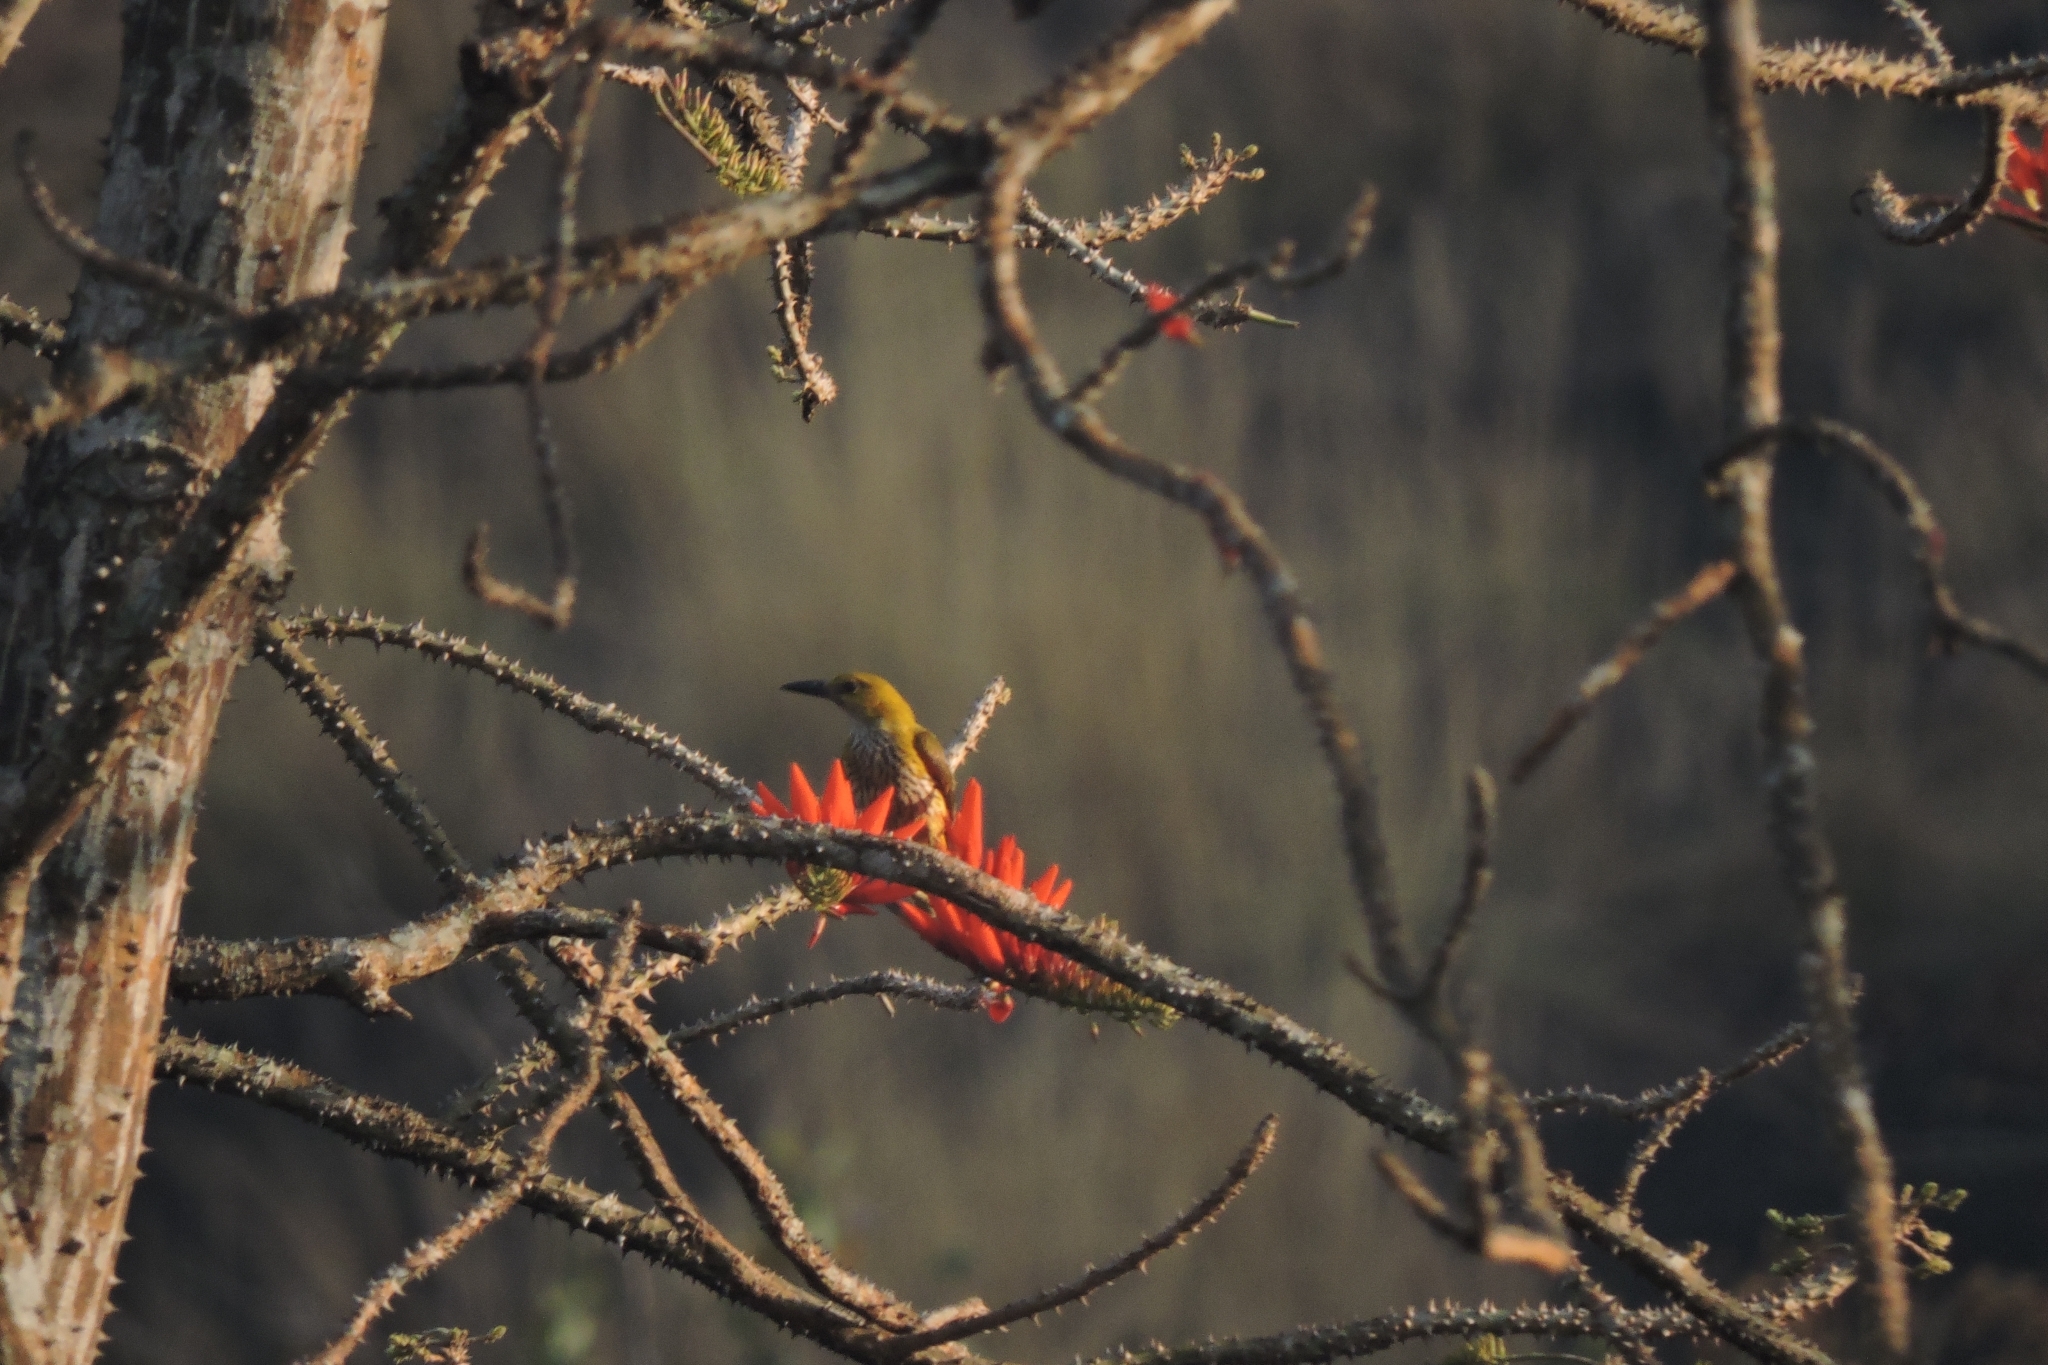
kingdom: Animalia
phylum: Chordata
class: Aves
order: Passeriformes
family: Oriolidae
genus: Oriolus
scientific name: Oriolus kundoo
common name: Indian golden oriole
